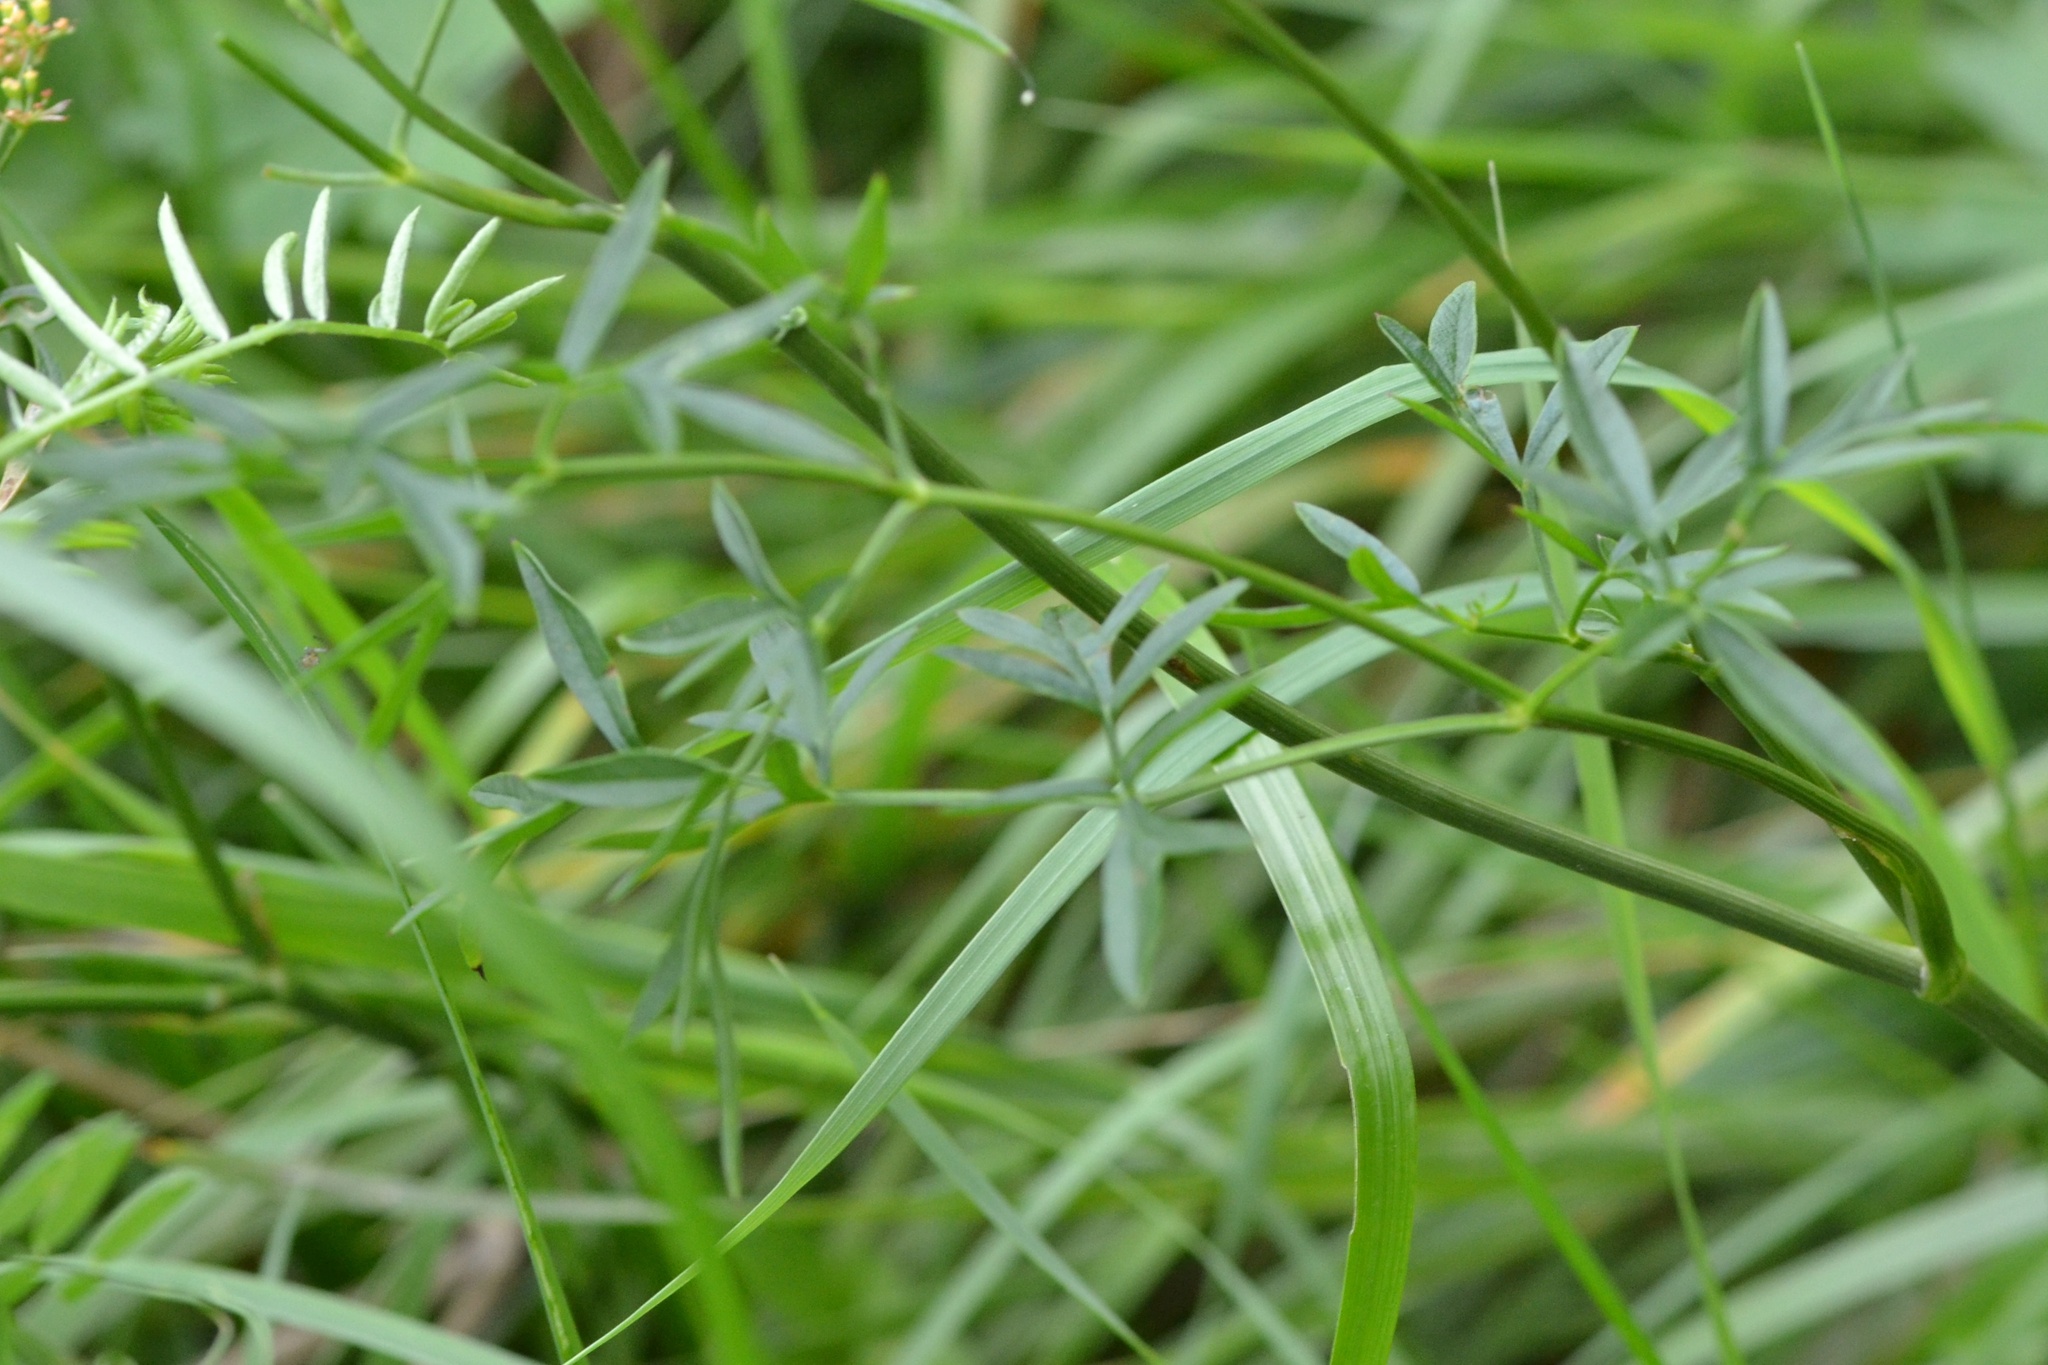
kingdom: Plantae
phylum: Tracheophyta
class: Magnoliopsida
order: Apiales
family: Apiaceae
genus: Silaum
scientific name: Silaum silaus
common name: Pepper-saxifrage
